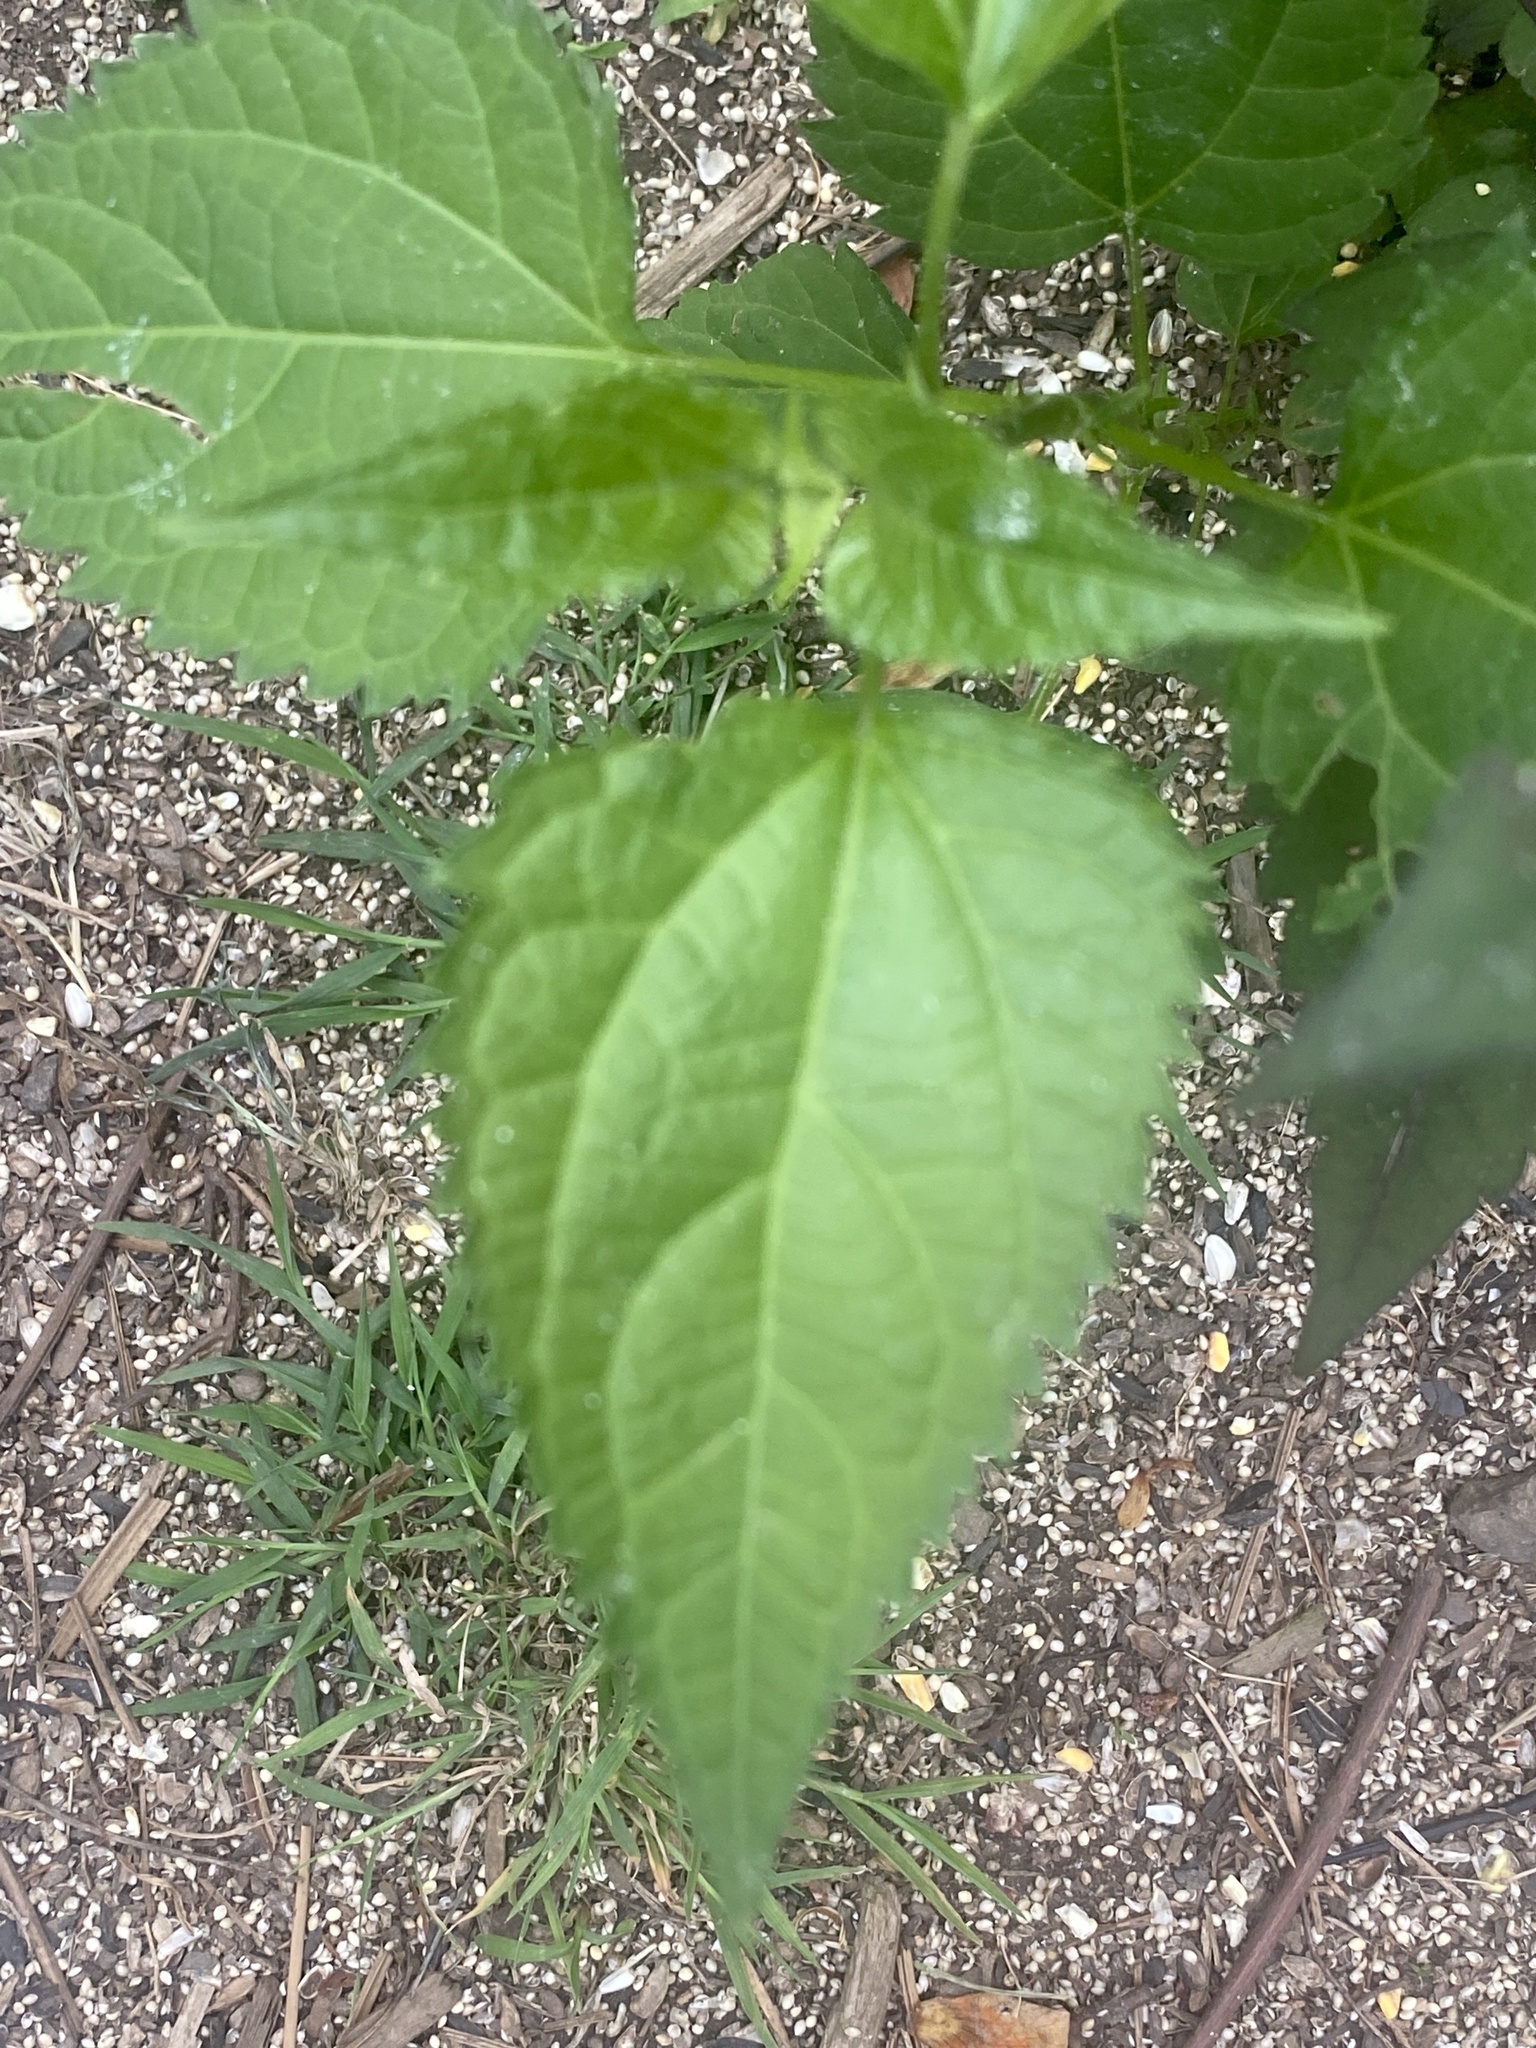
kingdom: Plantae
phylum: Tracheophyta
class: Magnoliopsida
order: Asterales
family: Asteraceae
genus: Ageratina
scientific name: Ageratina altissima
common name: White snakeroot
